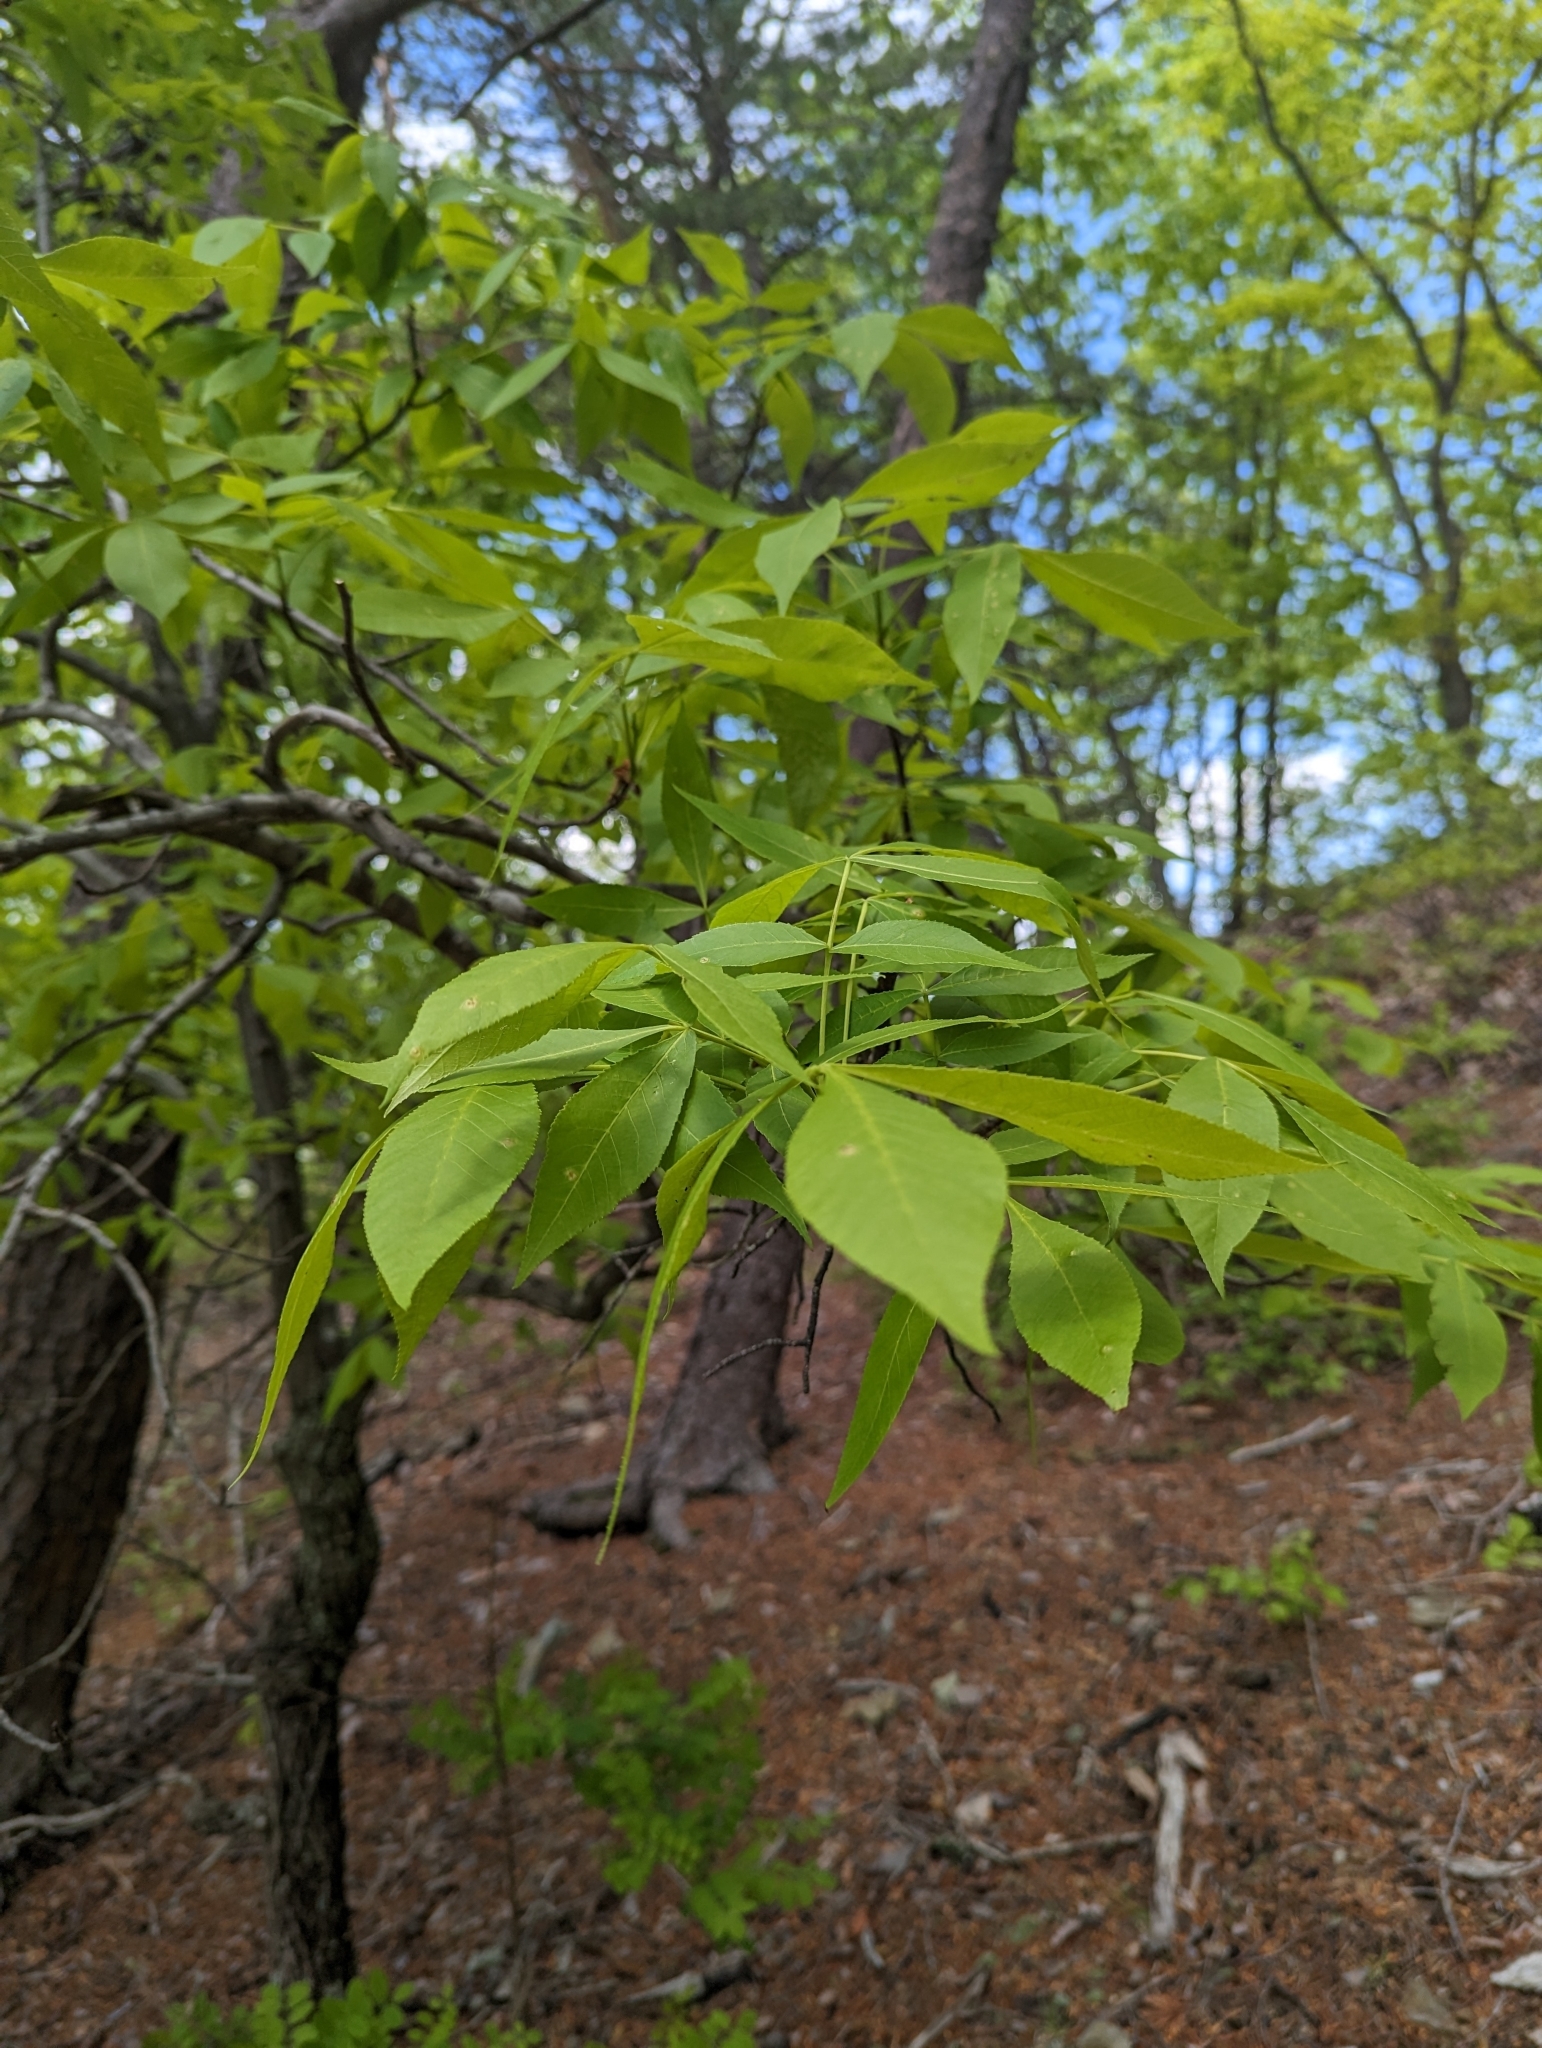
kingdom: Plantae
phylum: Tracheophyta
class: Magnoliopsida
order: Fagales
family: Juglandaceae
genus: Carya
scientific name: Carya glabra
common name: Pignut hickory
